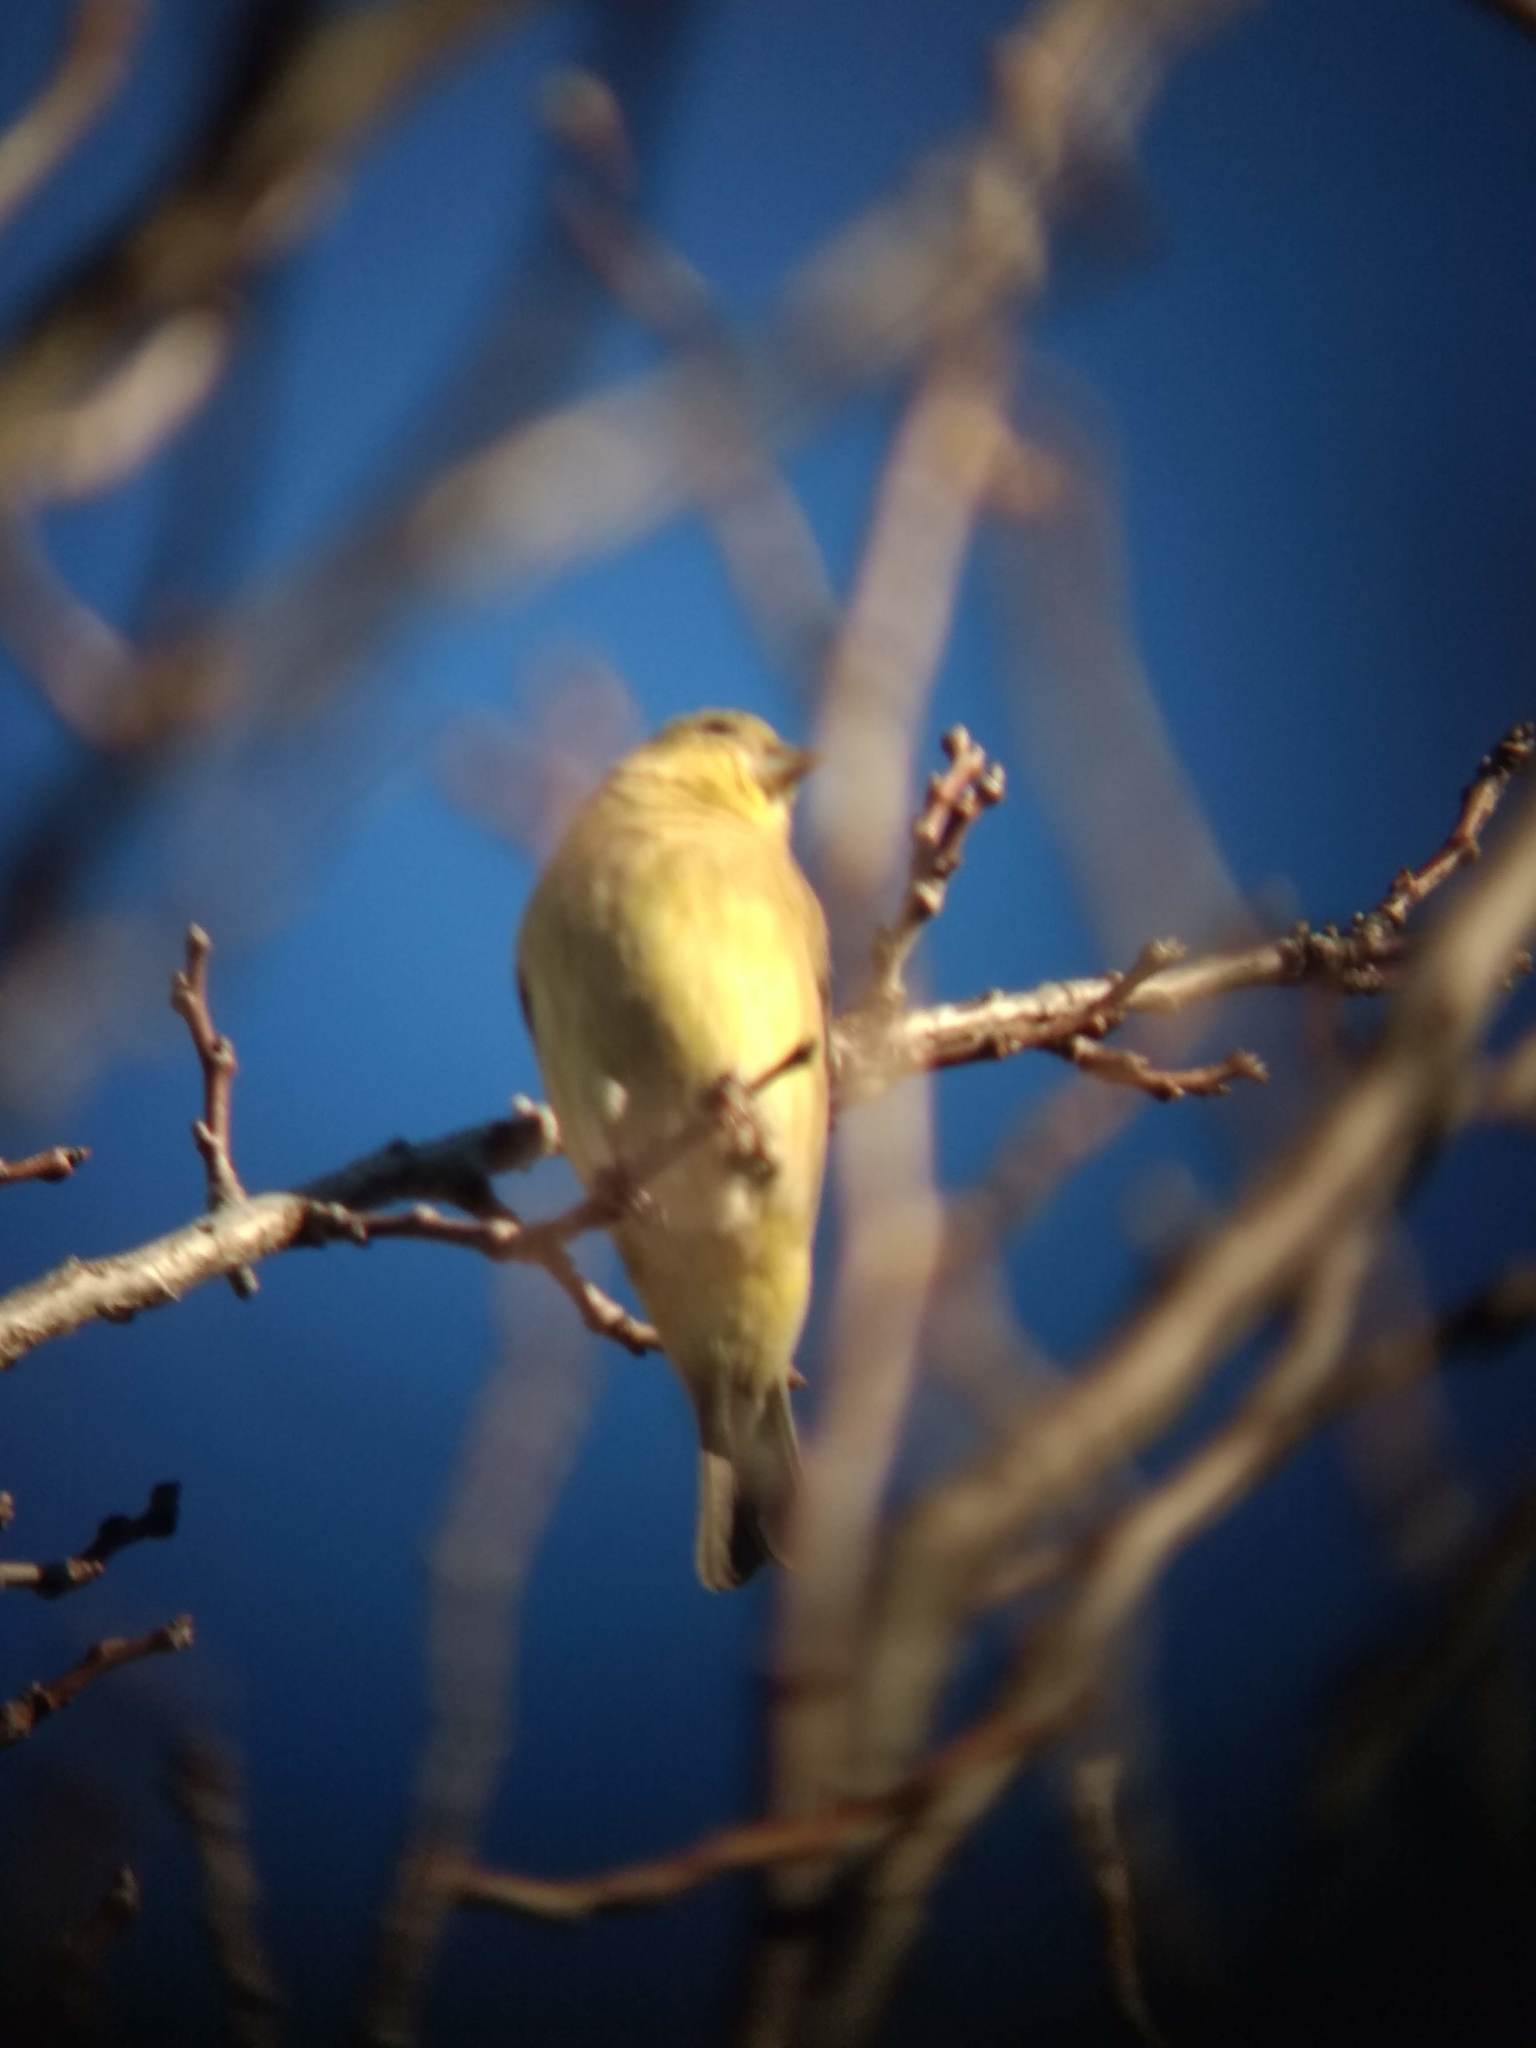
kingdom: Animalia
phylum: Chordata
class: Aves
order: Passeriformes
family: Fringillidae
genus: Spinus
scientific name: Spinus psaltria
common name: Lesser goldfinch
